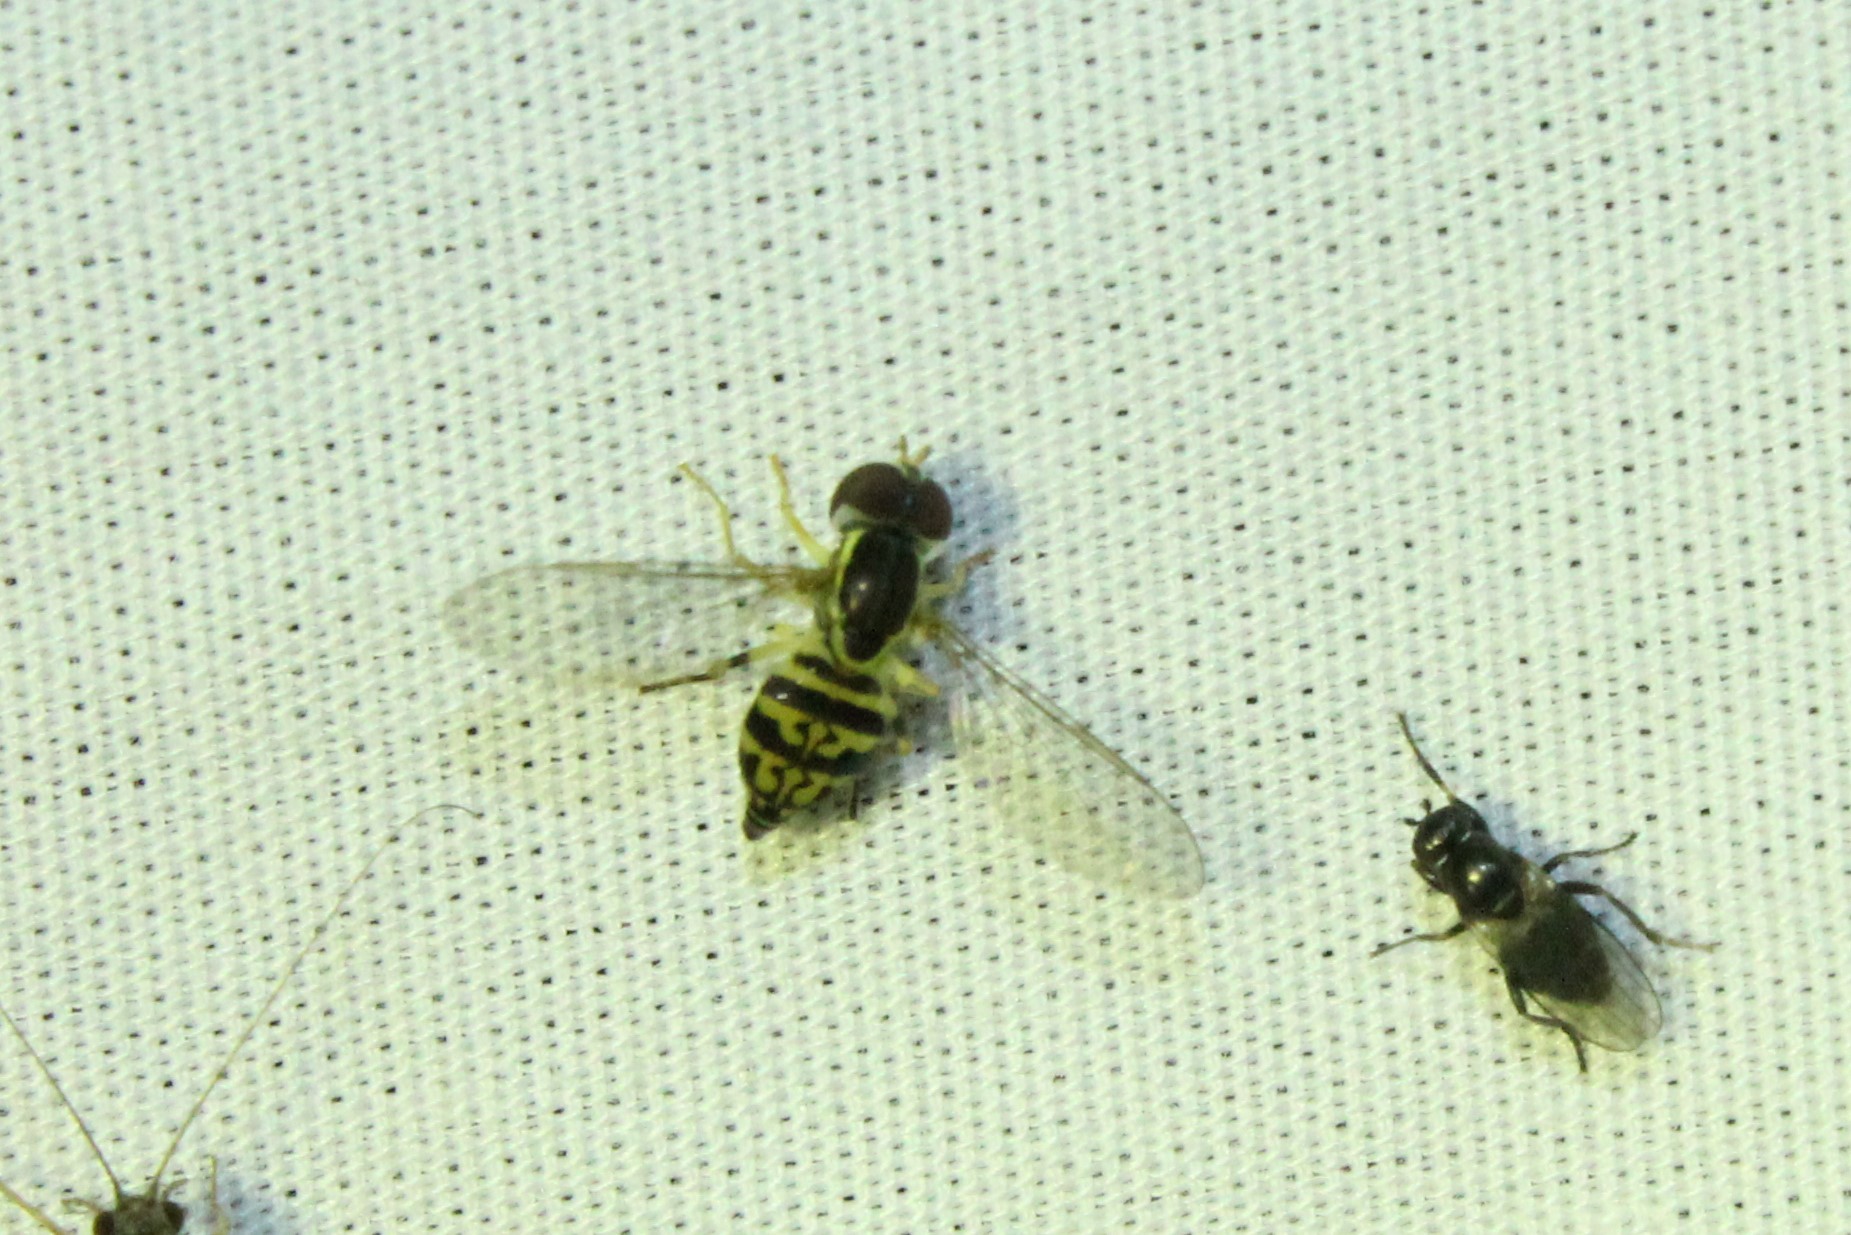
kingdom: Animalia
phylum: Arthropoda
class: Insecta
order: Diptera
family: Syrphidae
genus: Toxomerus
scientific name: Toxomerus geminatus
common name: Eastern calligrapher
